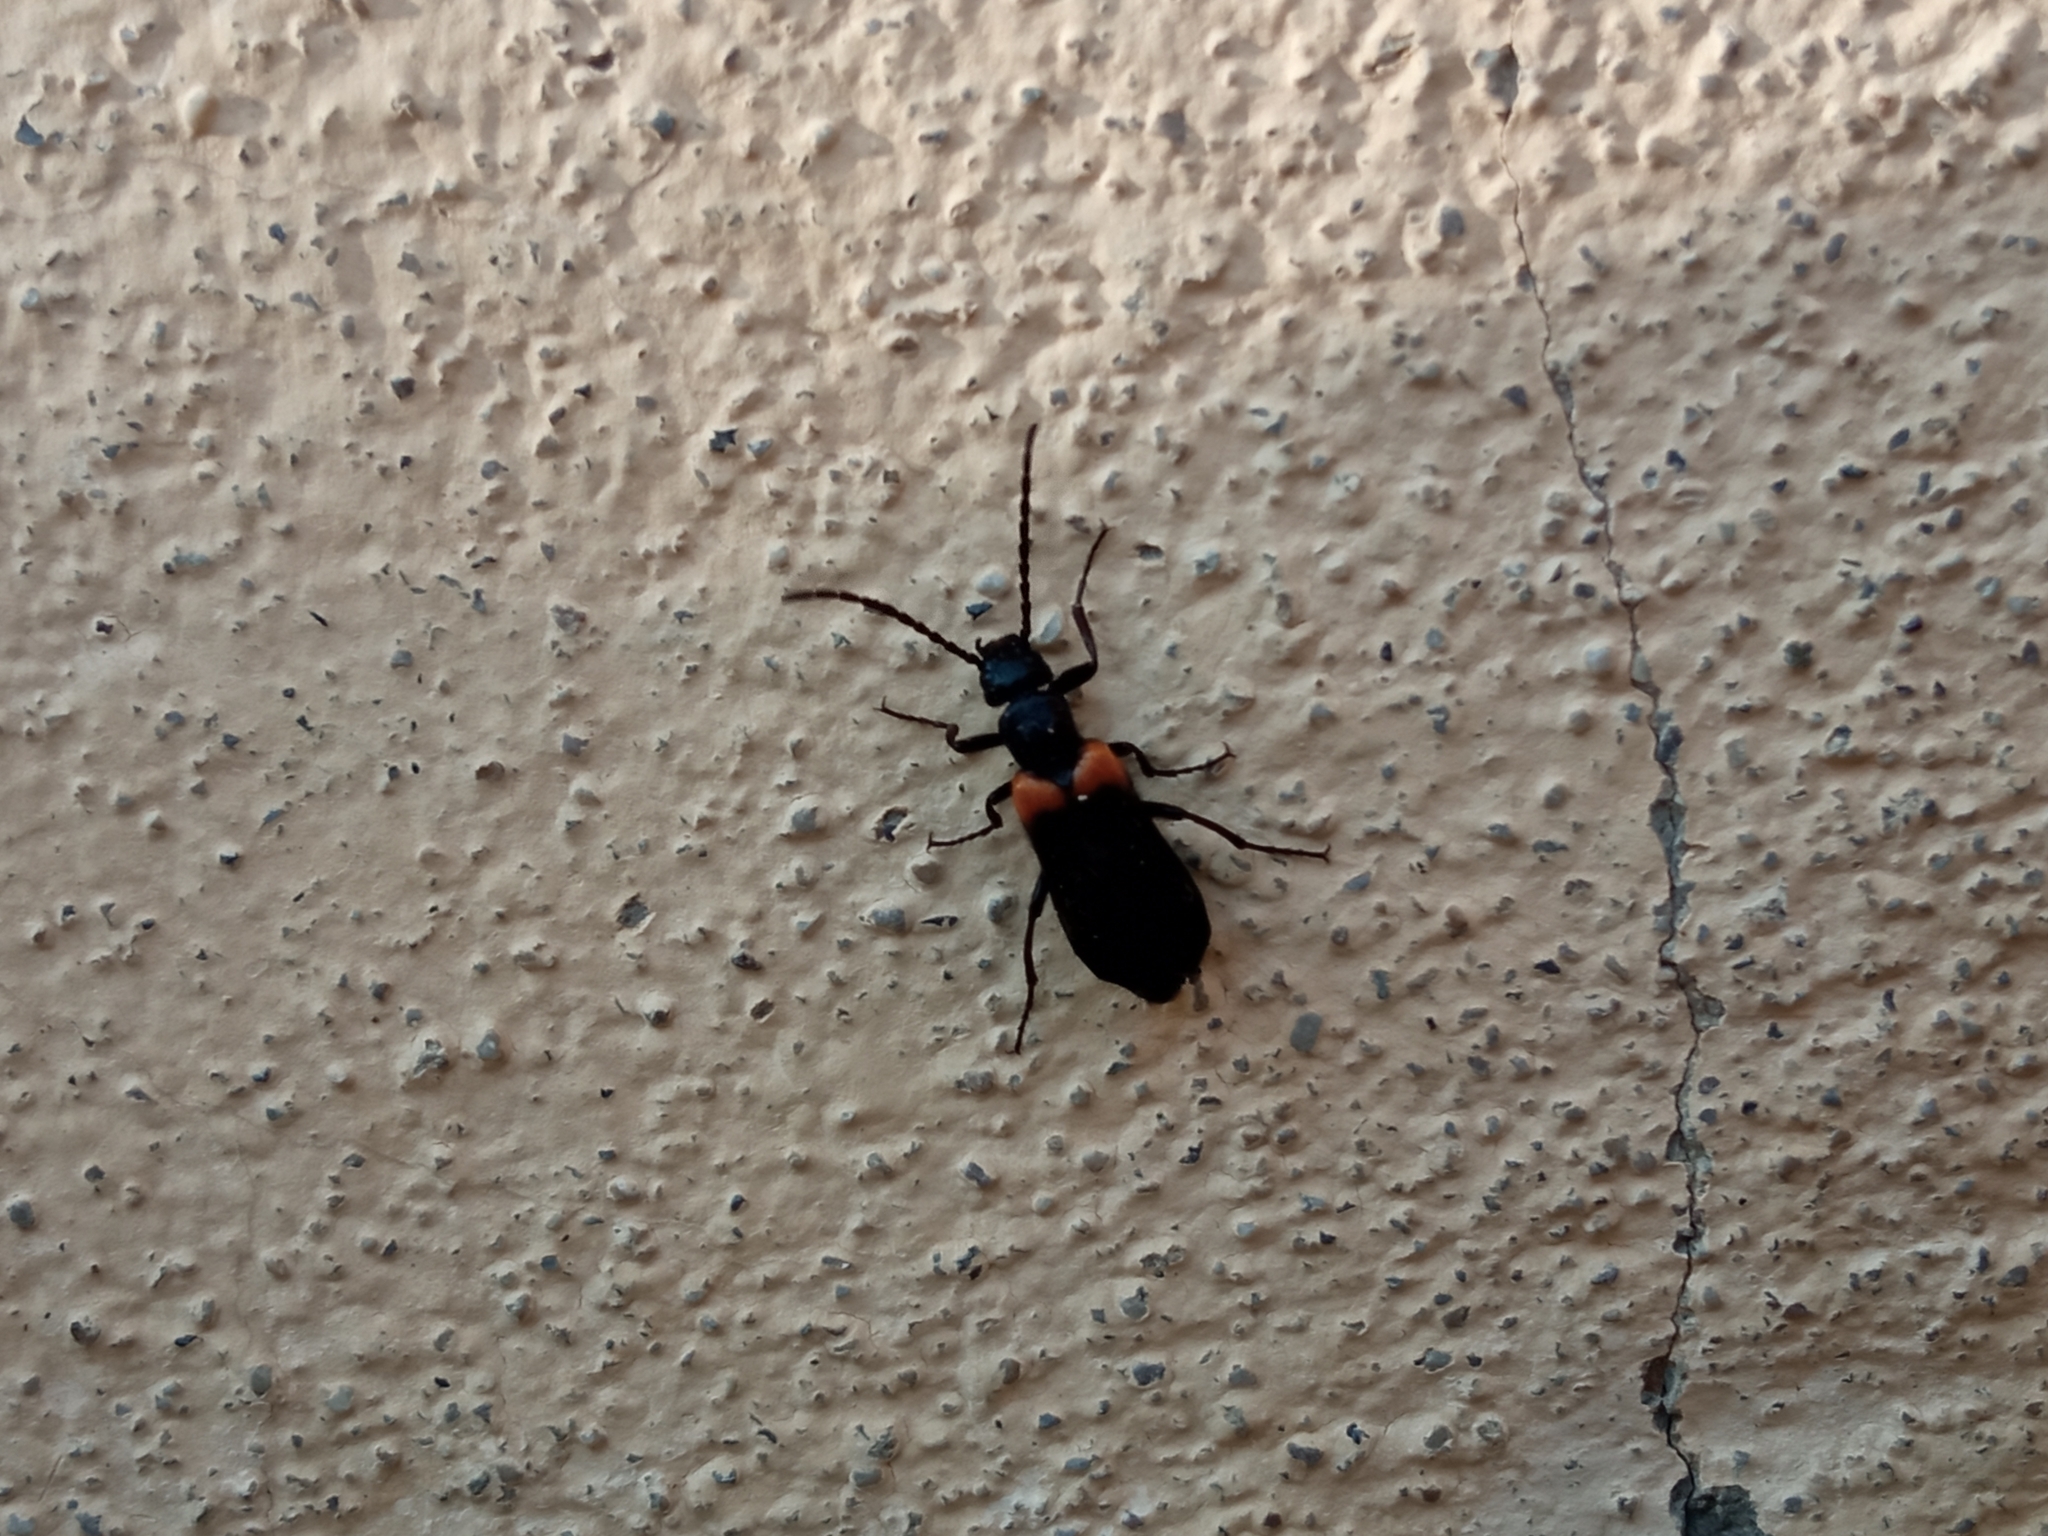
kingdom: Animalia
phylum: Arthropoda
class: Insecta
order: Coleoptera
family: Meloidae
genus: Sitaris
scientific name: Sitaris muralis
